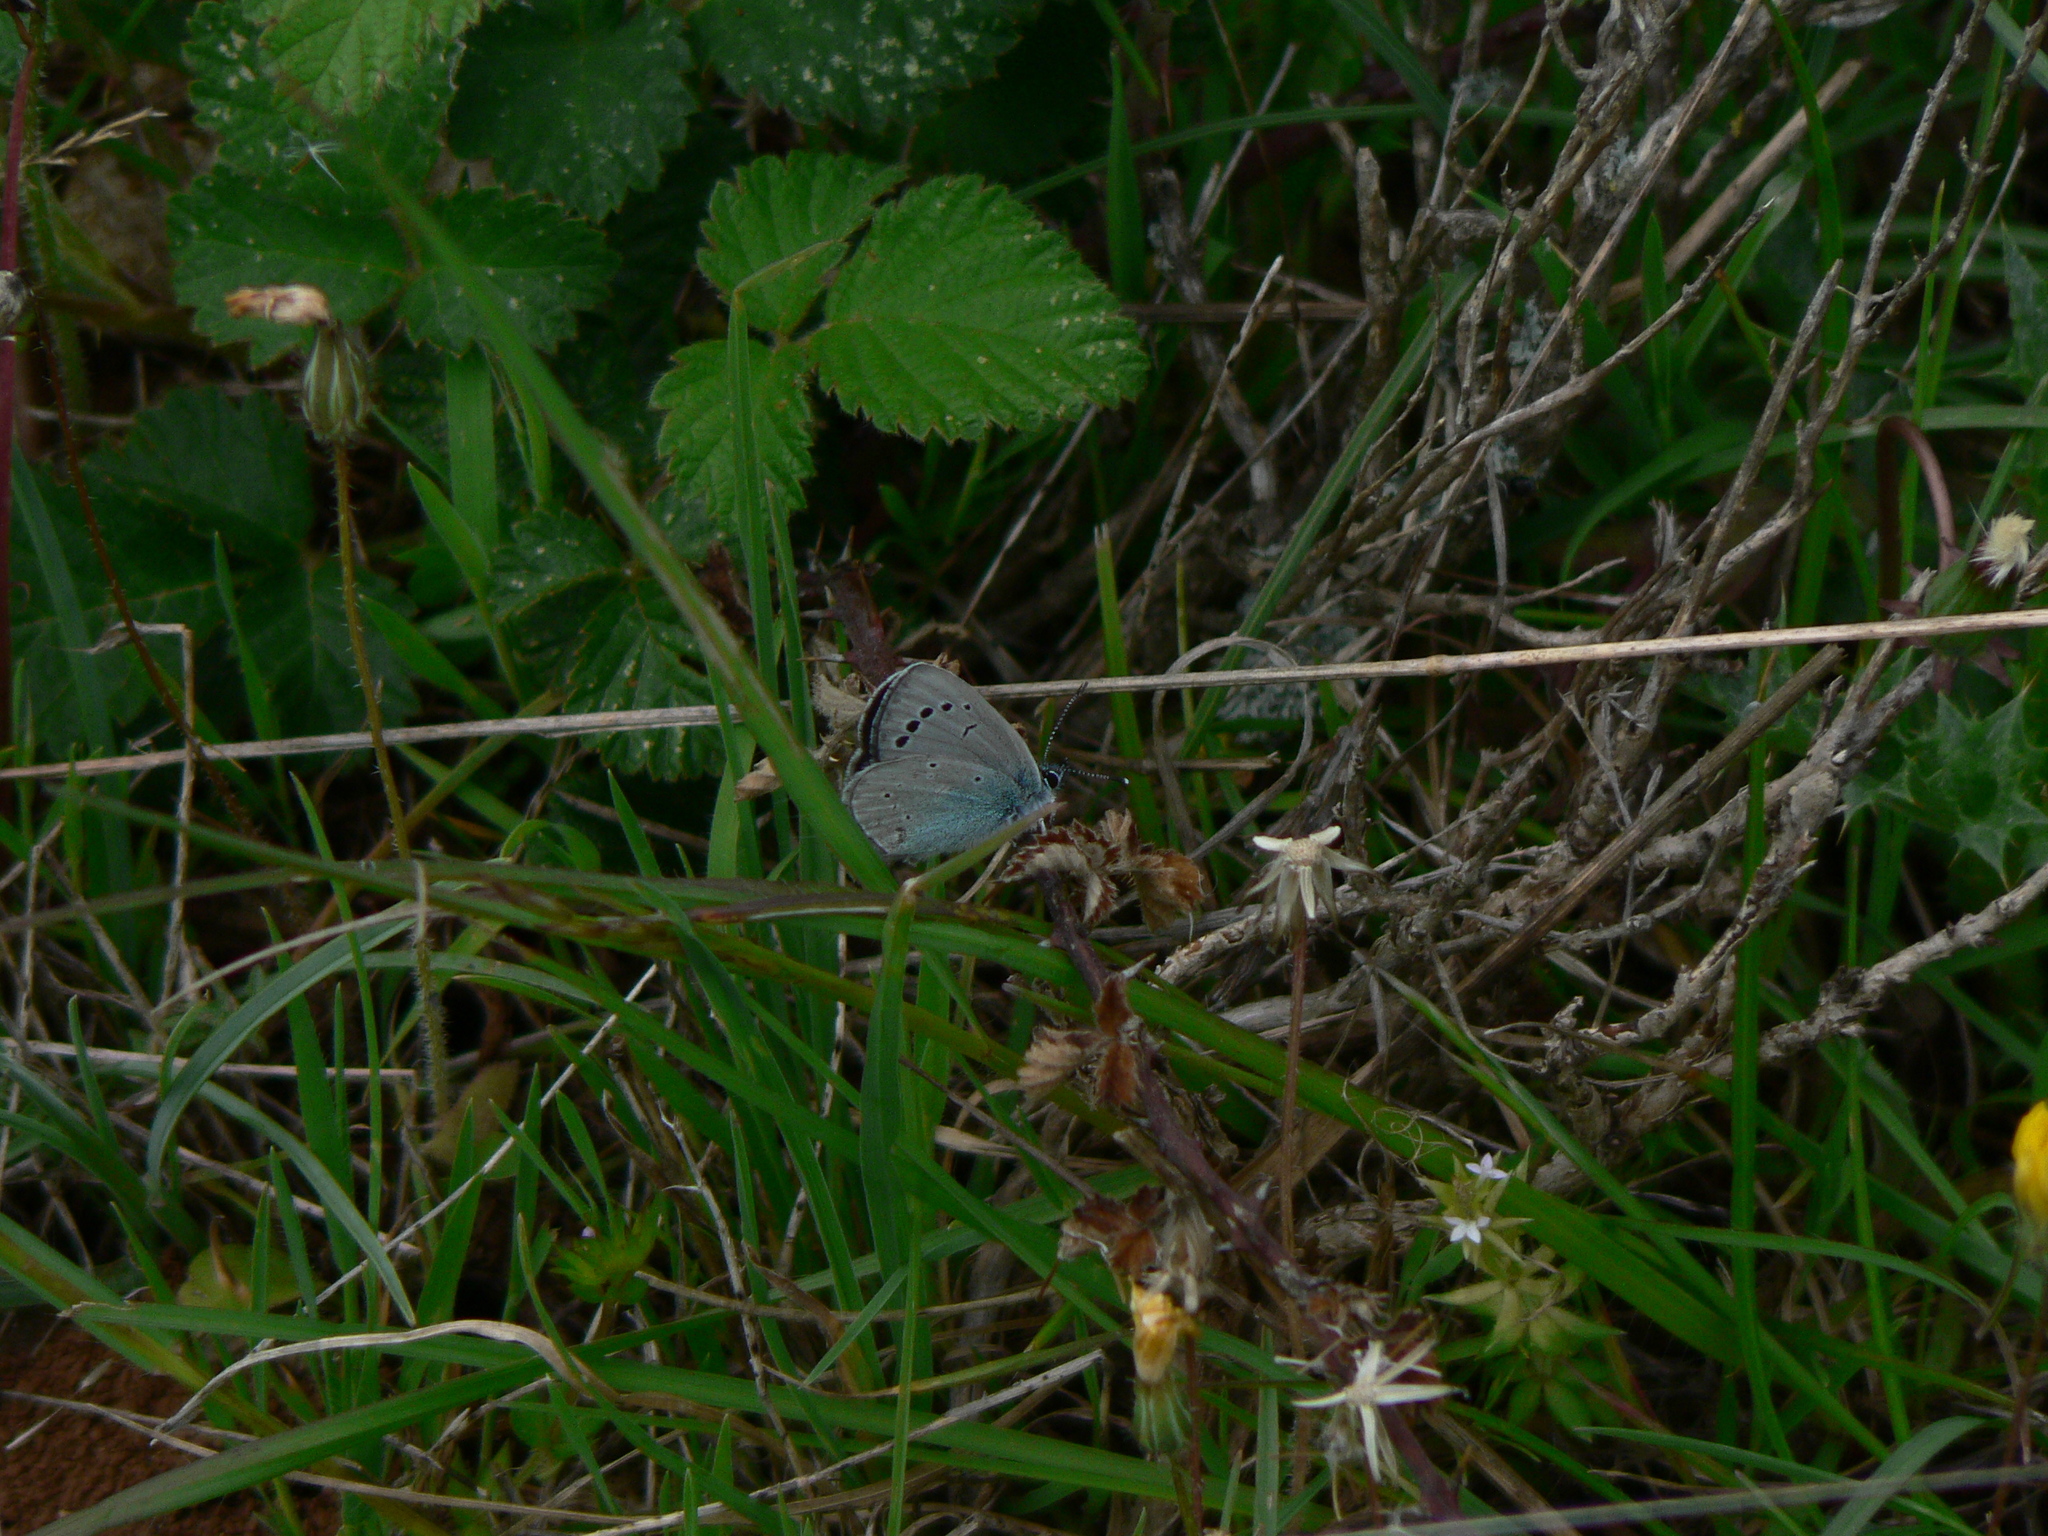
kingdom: Animalia
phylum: Arthropoda
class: Insecta
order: Lepidoptera
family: Lycaenidae
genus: Glaucopsyche
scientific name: Glaucopsyche alexis
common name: Green-underside blue
